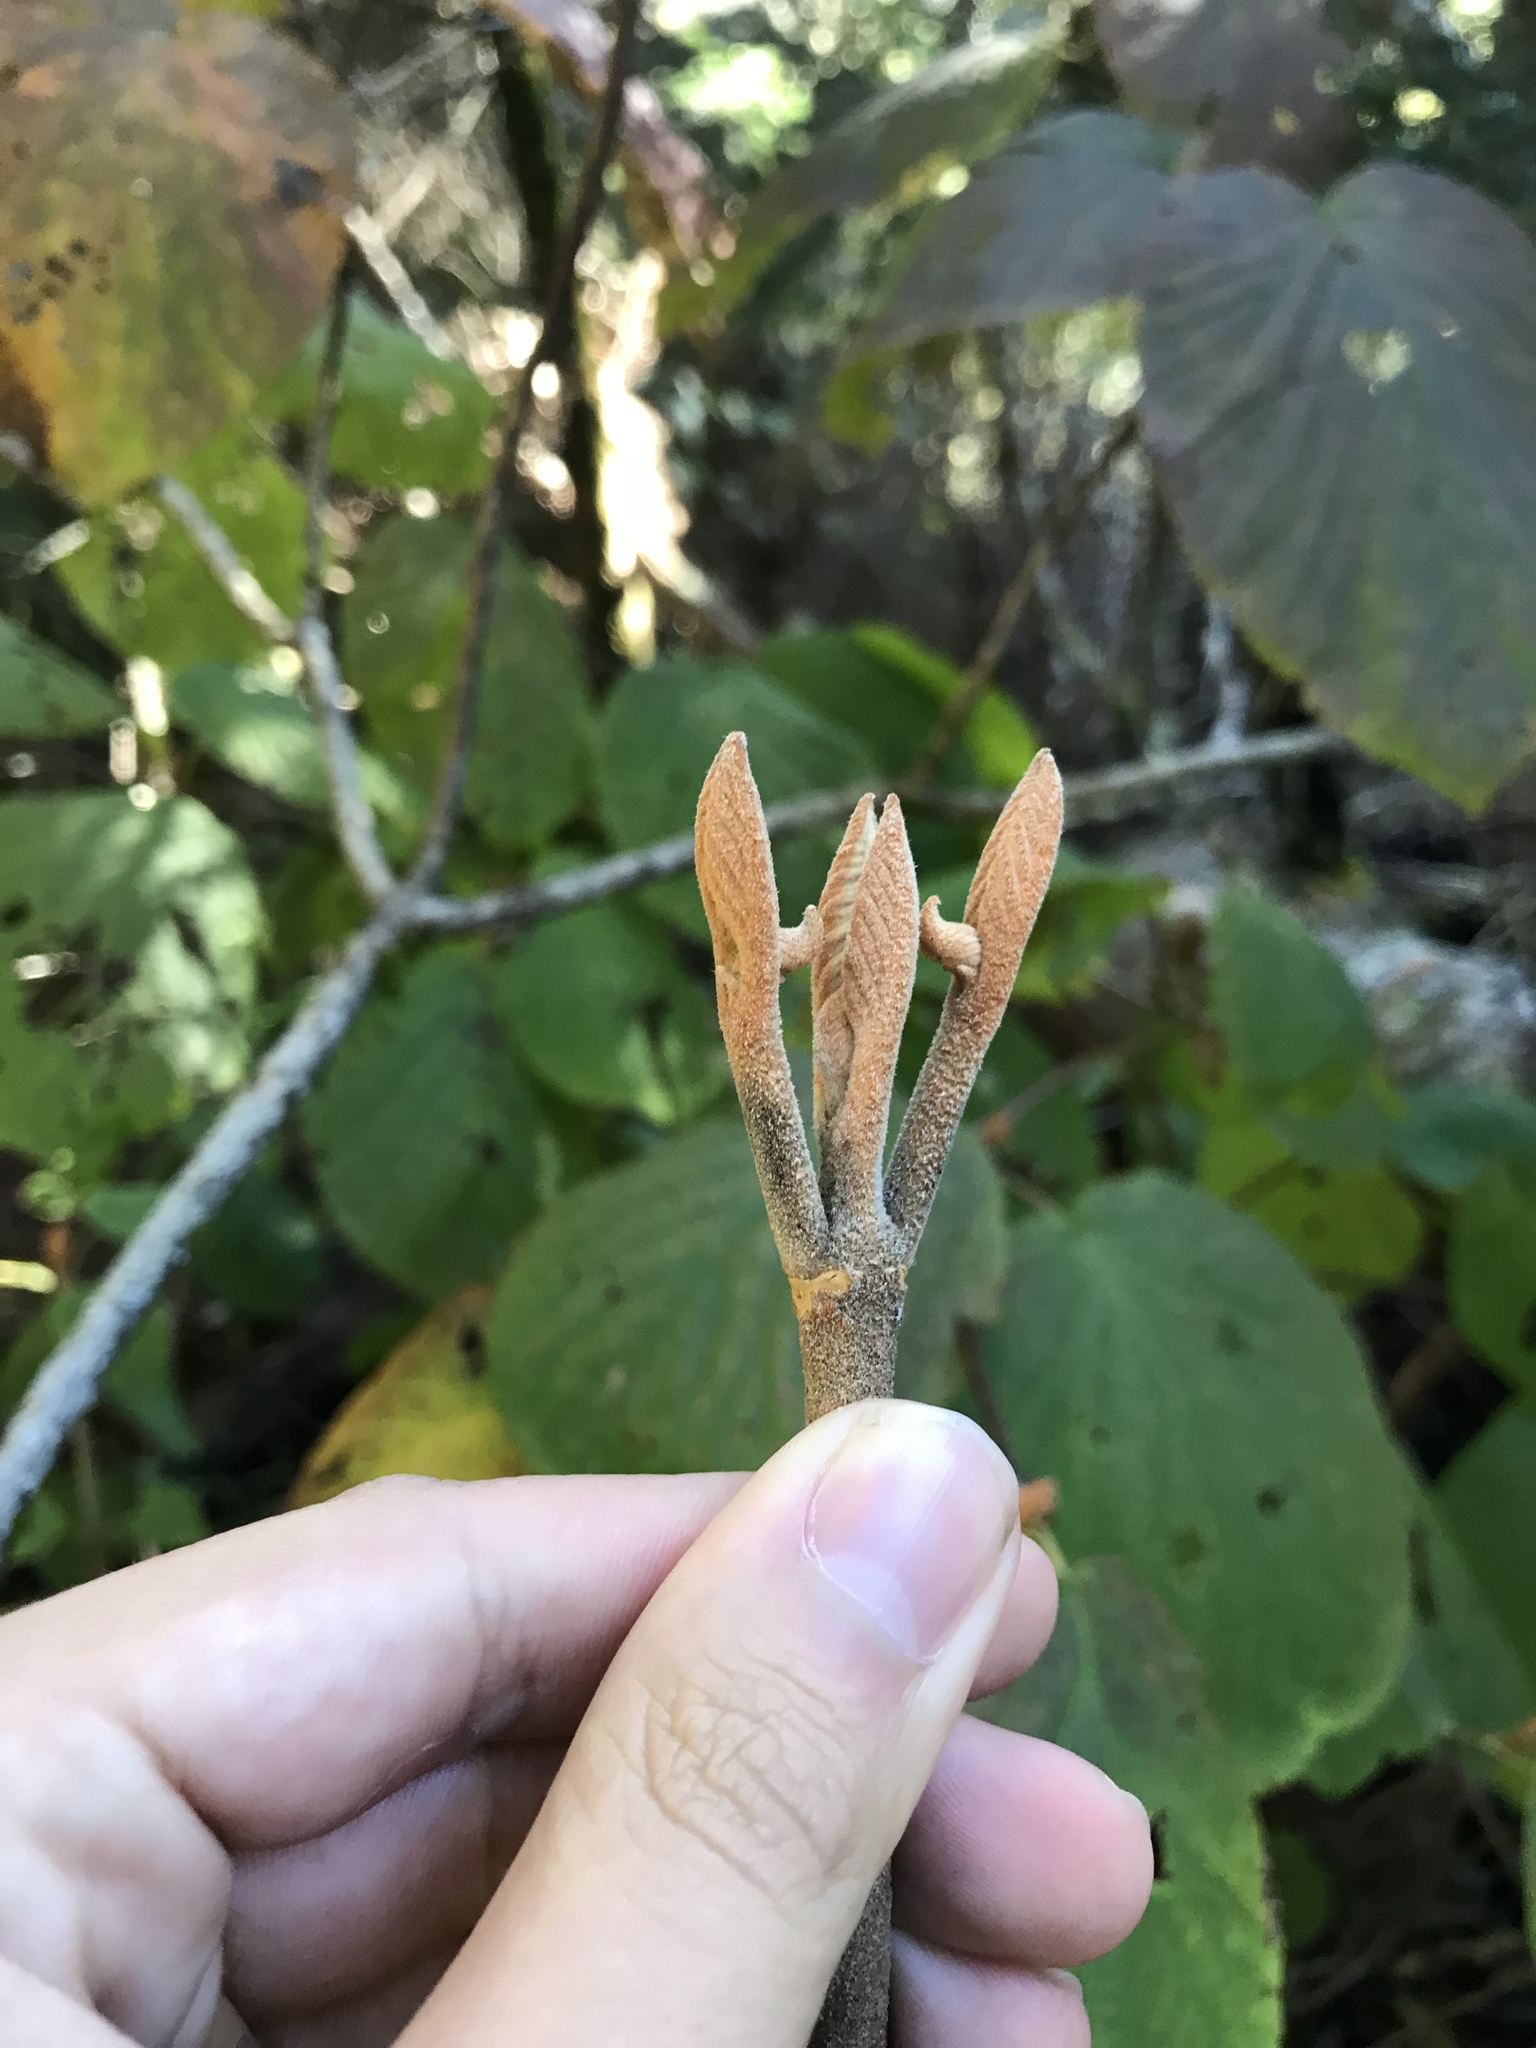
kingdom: Plantae
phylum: Tracheophyta
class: Magnoliopsida
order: Dipsacales
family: Viburnaceae
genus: Viburnum
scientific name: Viburnum lantanoides
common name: Hobblebush
